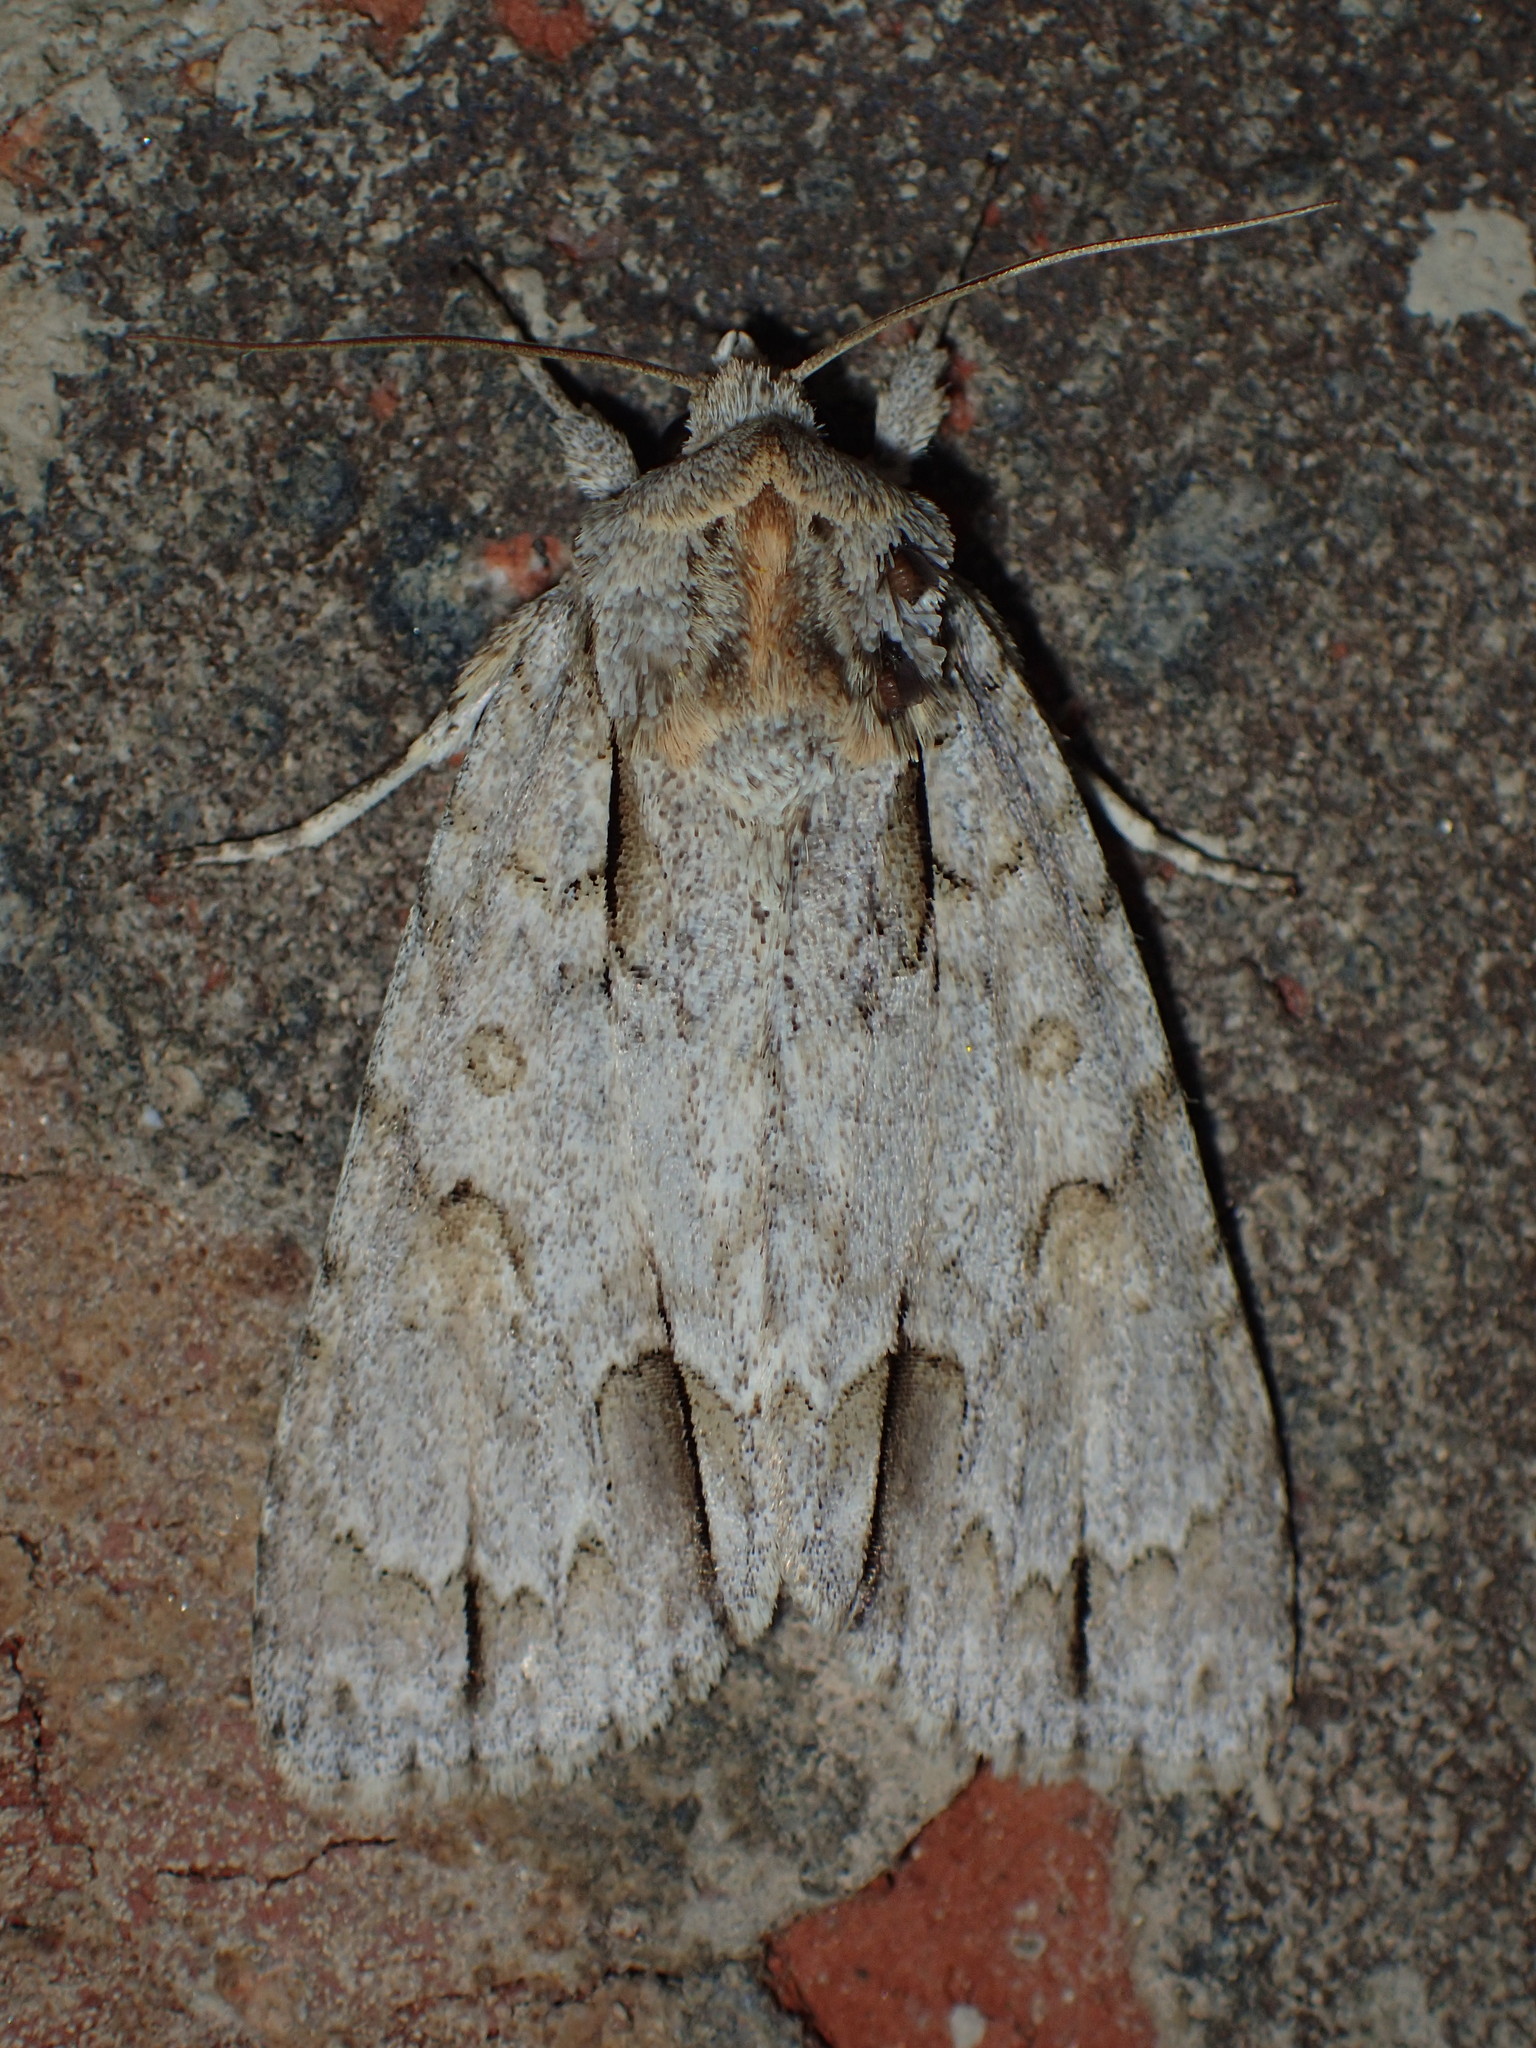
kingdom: Animalia
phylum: Arthropoda
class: Insecta
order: Lepidoptera
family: Noctuidae
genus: Acronicta
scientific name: Acronicta morula
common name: Ochre dagger
